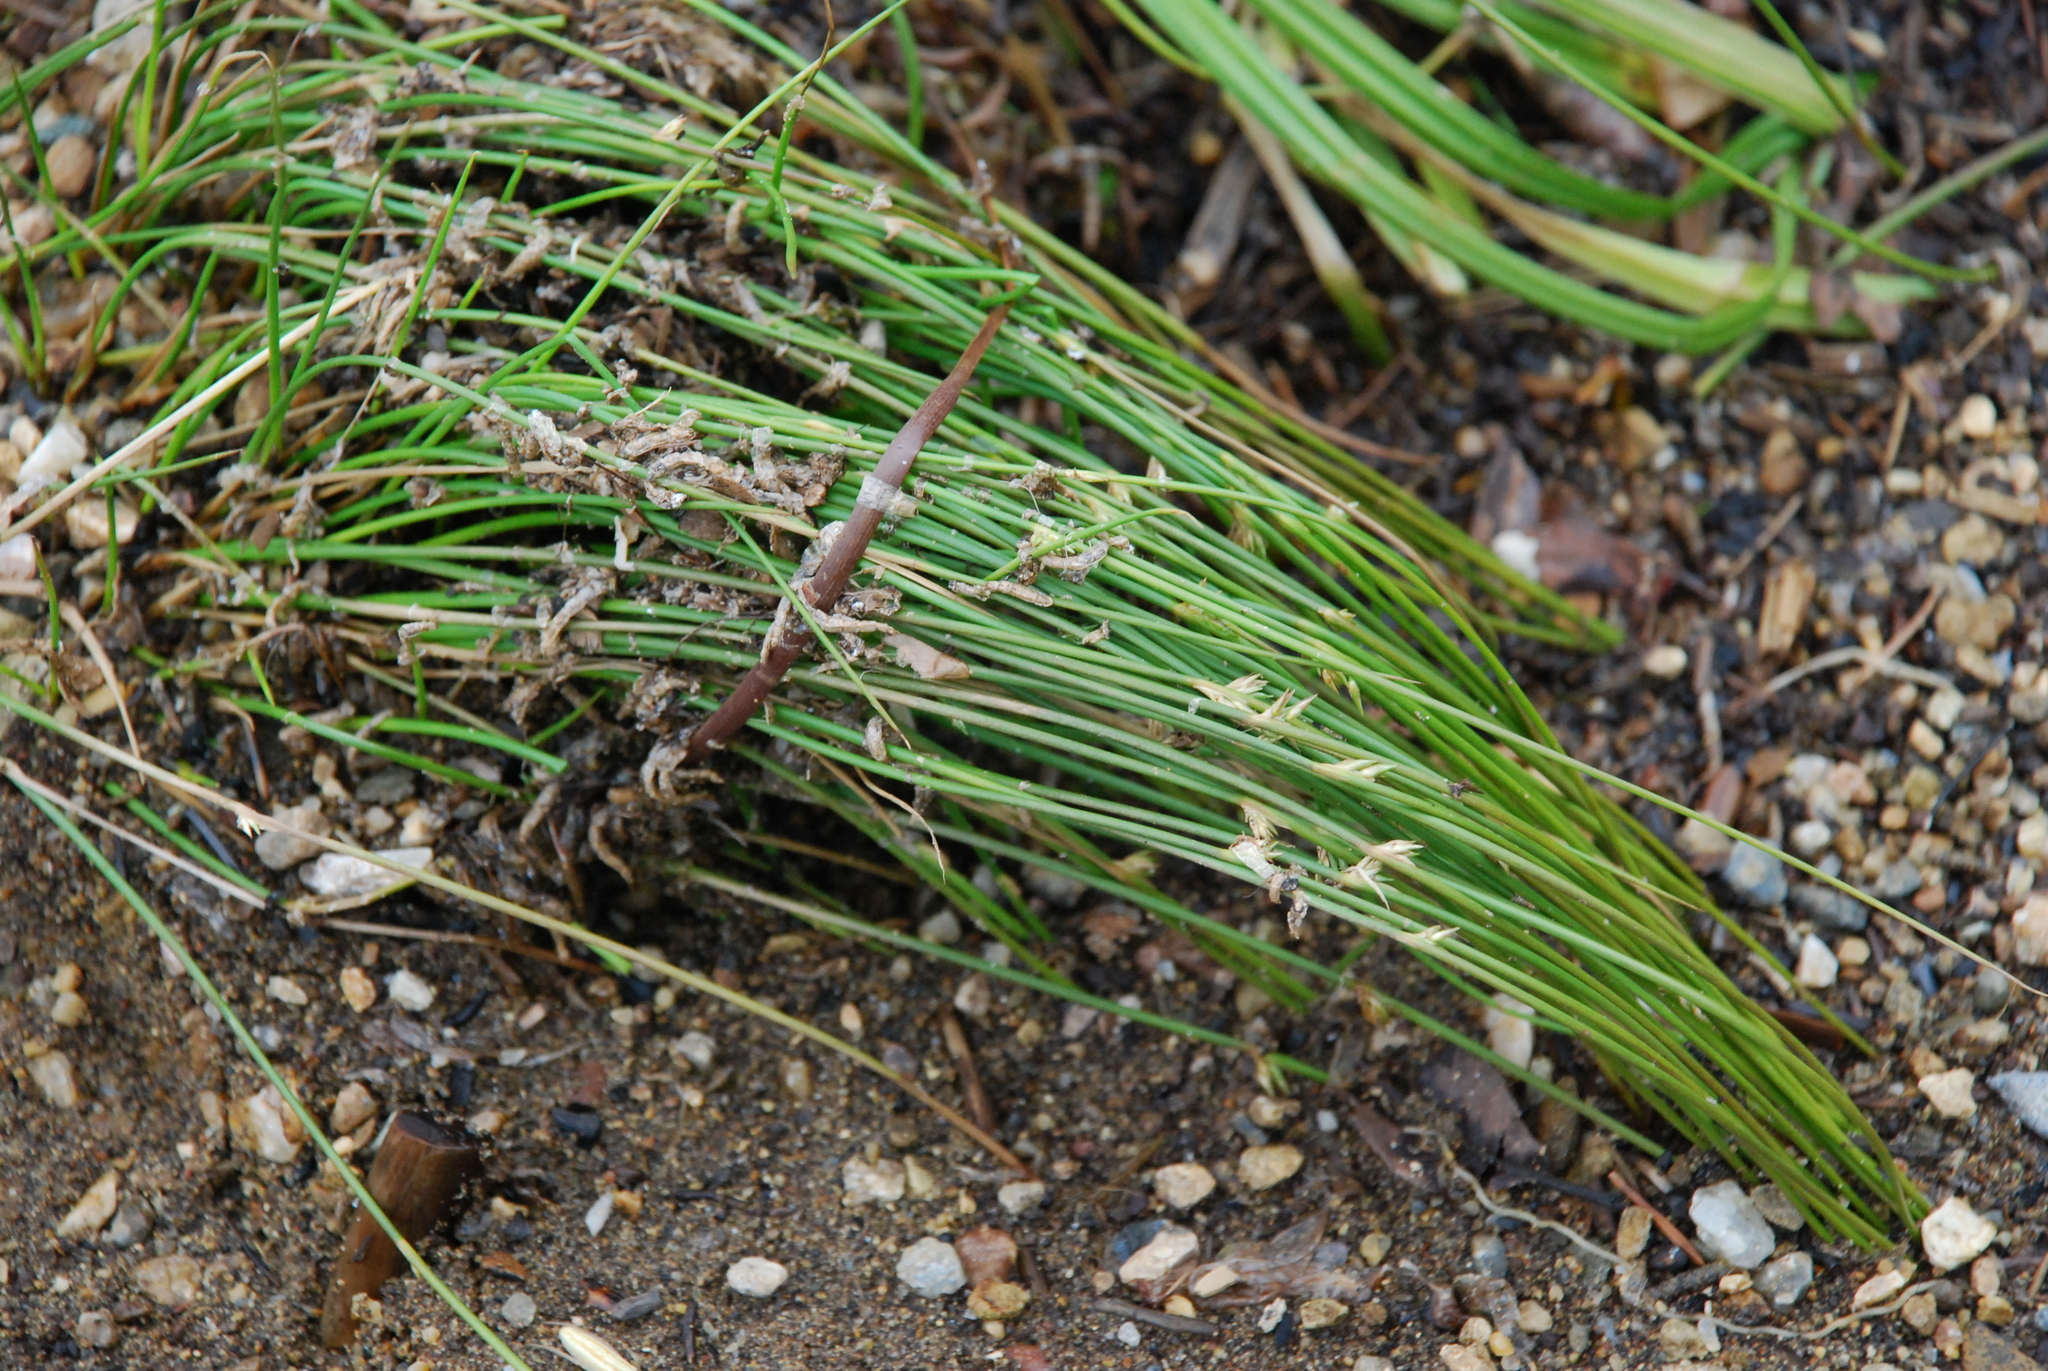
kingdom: Plantae
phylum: Tracheophyta
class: Liliopsida
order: Poales
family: Juncaceae
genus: Juncus
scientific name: Juncus filiformis
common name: Thread rush
